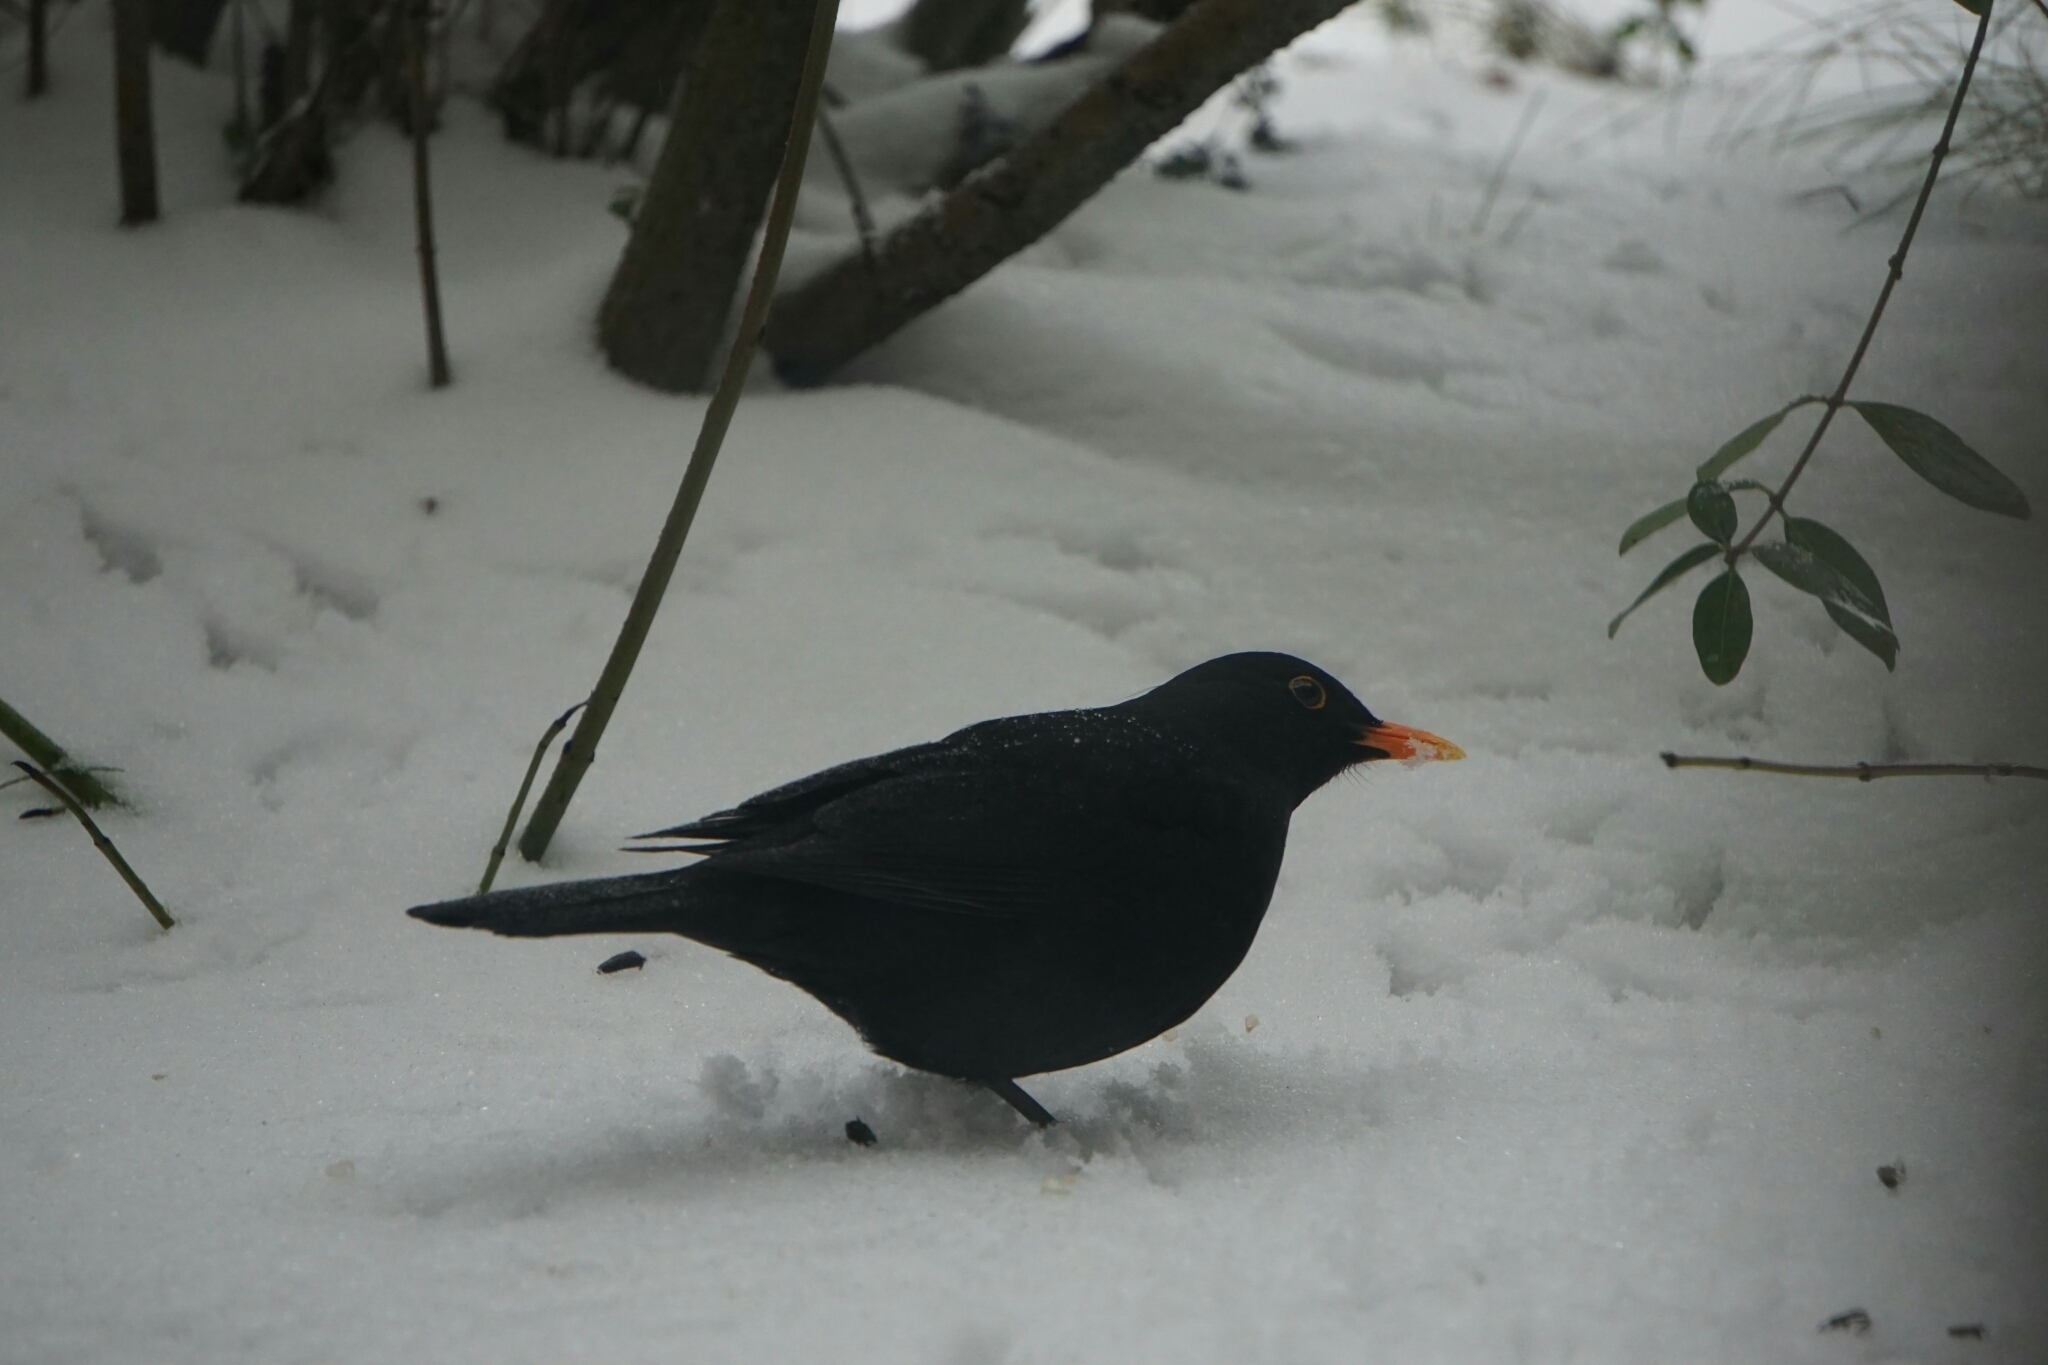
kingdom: Animalia
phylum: Chordata
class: Aves
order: Passeriformes
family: Turdidae
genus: Turdus
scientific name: Turdus merula
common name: Common blackbird
